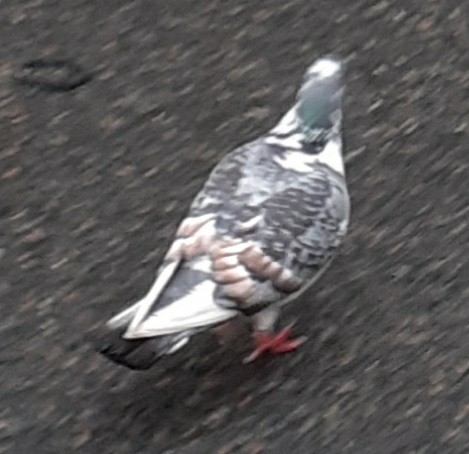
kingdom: Animalia
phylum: Chordata
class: Aves
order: Columbiformes
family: Columbidae
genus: Columba
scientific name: Columba livia
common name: Rock pigeon
